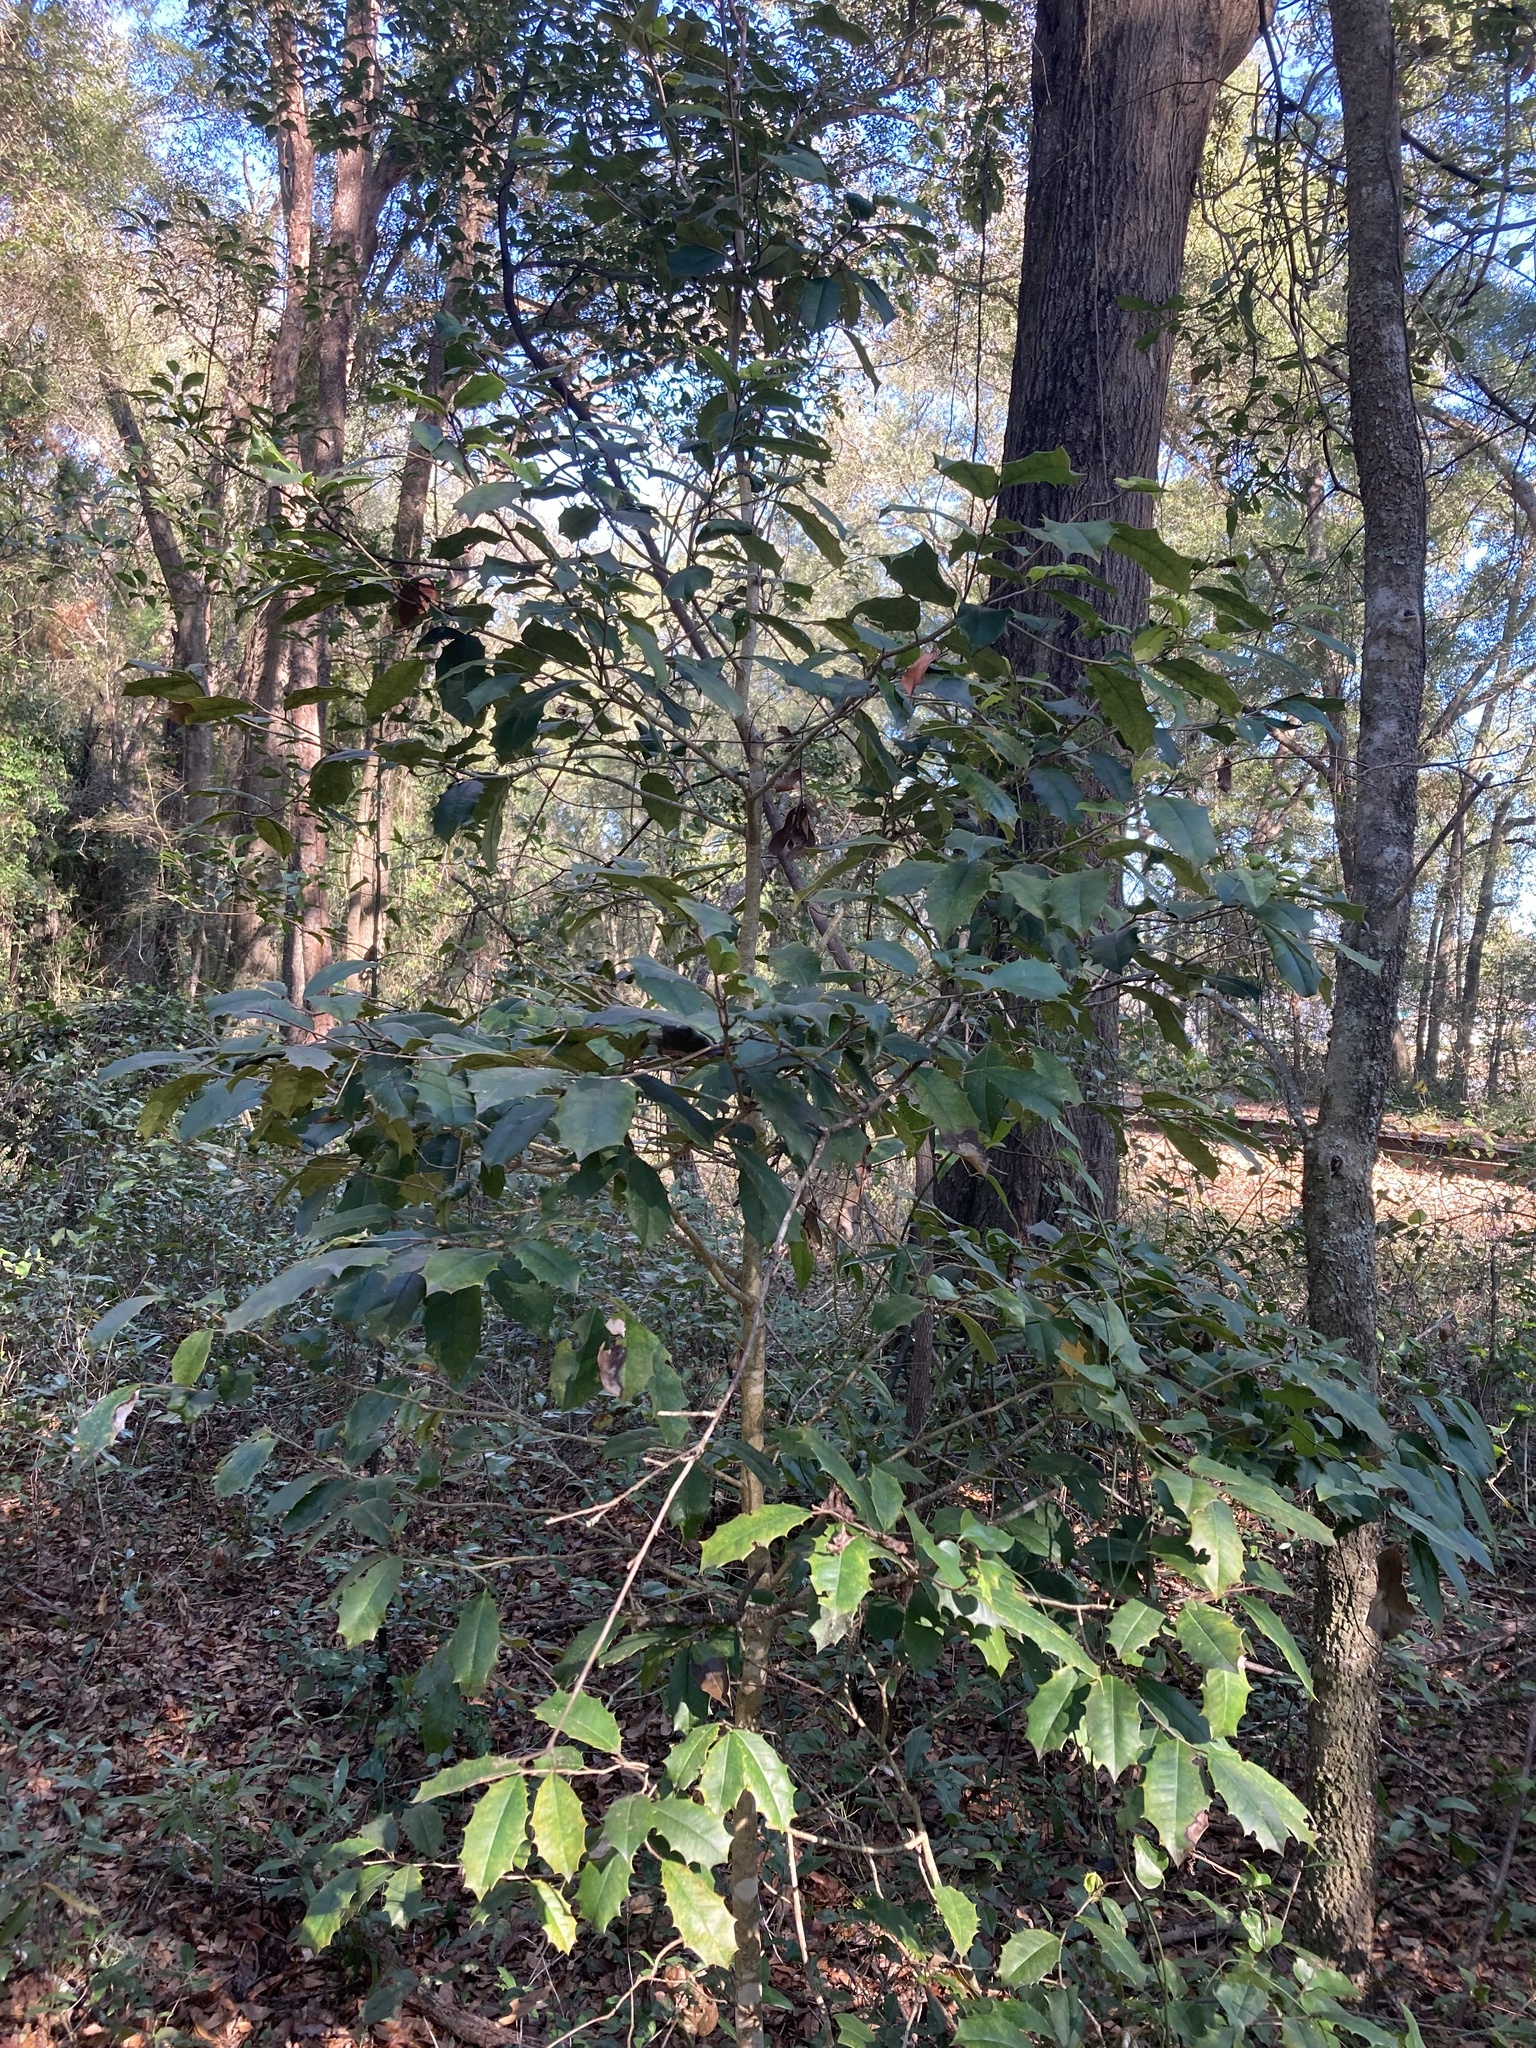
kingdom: Plantae
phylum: Tracheophyta
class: Magnoliopsida
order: Aquifoliales
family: Aquifoliaceae
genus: Ilex
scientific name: Ilex opaca
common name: American holly
